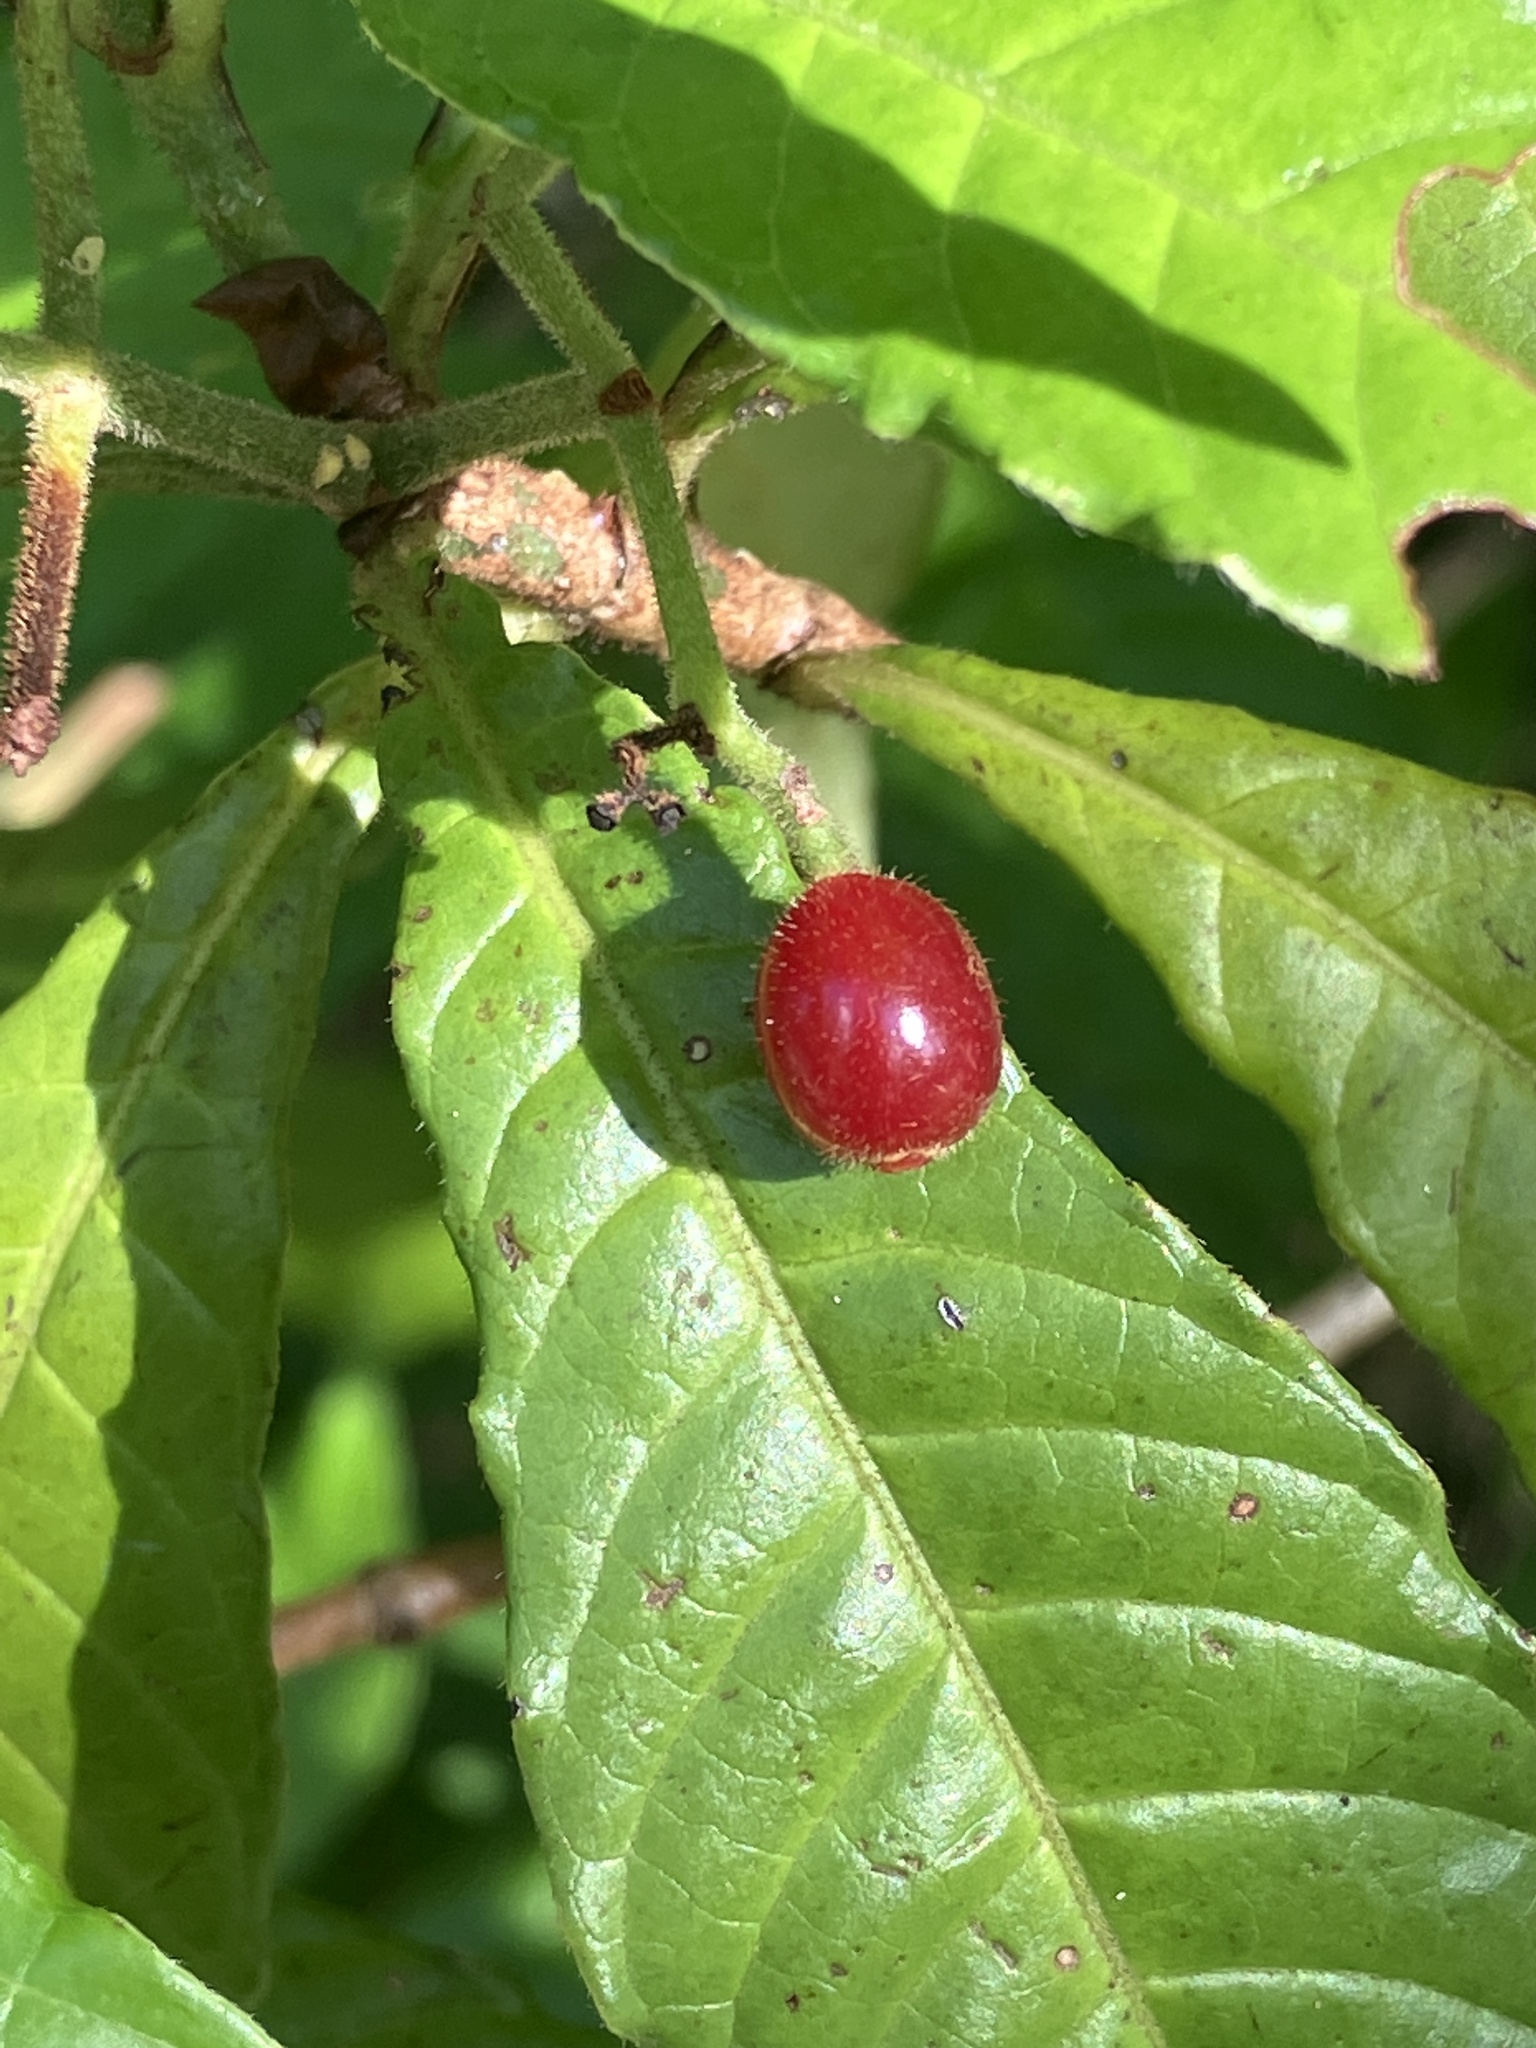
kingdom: Plantae
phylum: Tracheophyta
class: Magnoliopsida
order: Gentianales
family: Rubiaceae
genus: Psychotria
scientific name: Psychotria nervosa
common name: Bastard cankerberry
